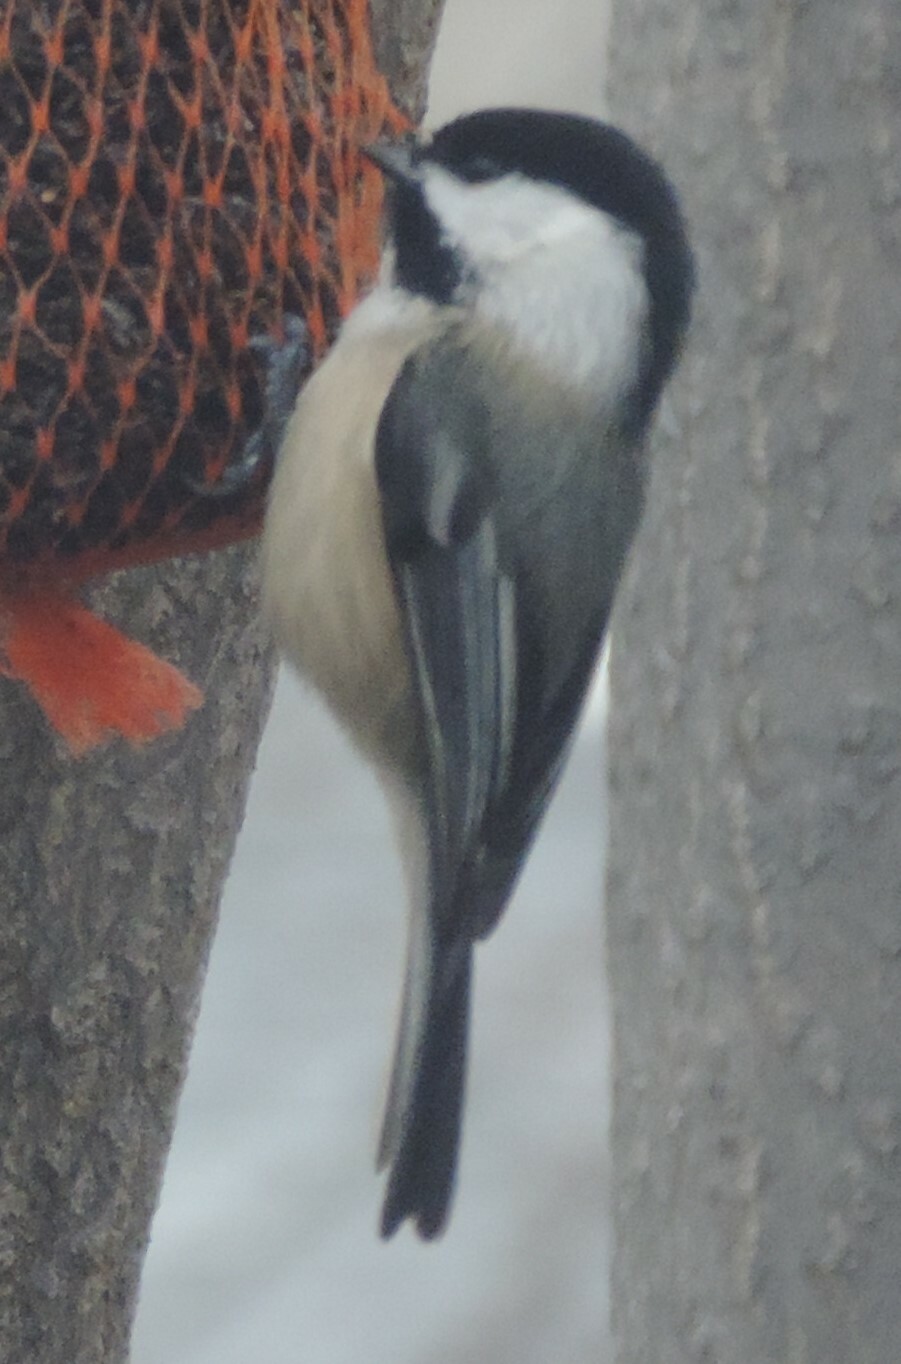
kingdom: Animalia
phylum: Chordata
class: Aves
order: Passeriformes
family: Paridae
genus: Poecile
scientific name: Poecile atricapillus
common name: Black-capped chickadee
